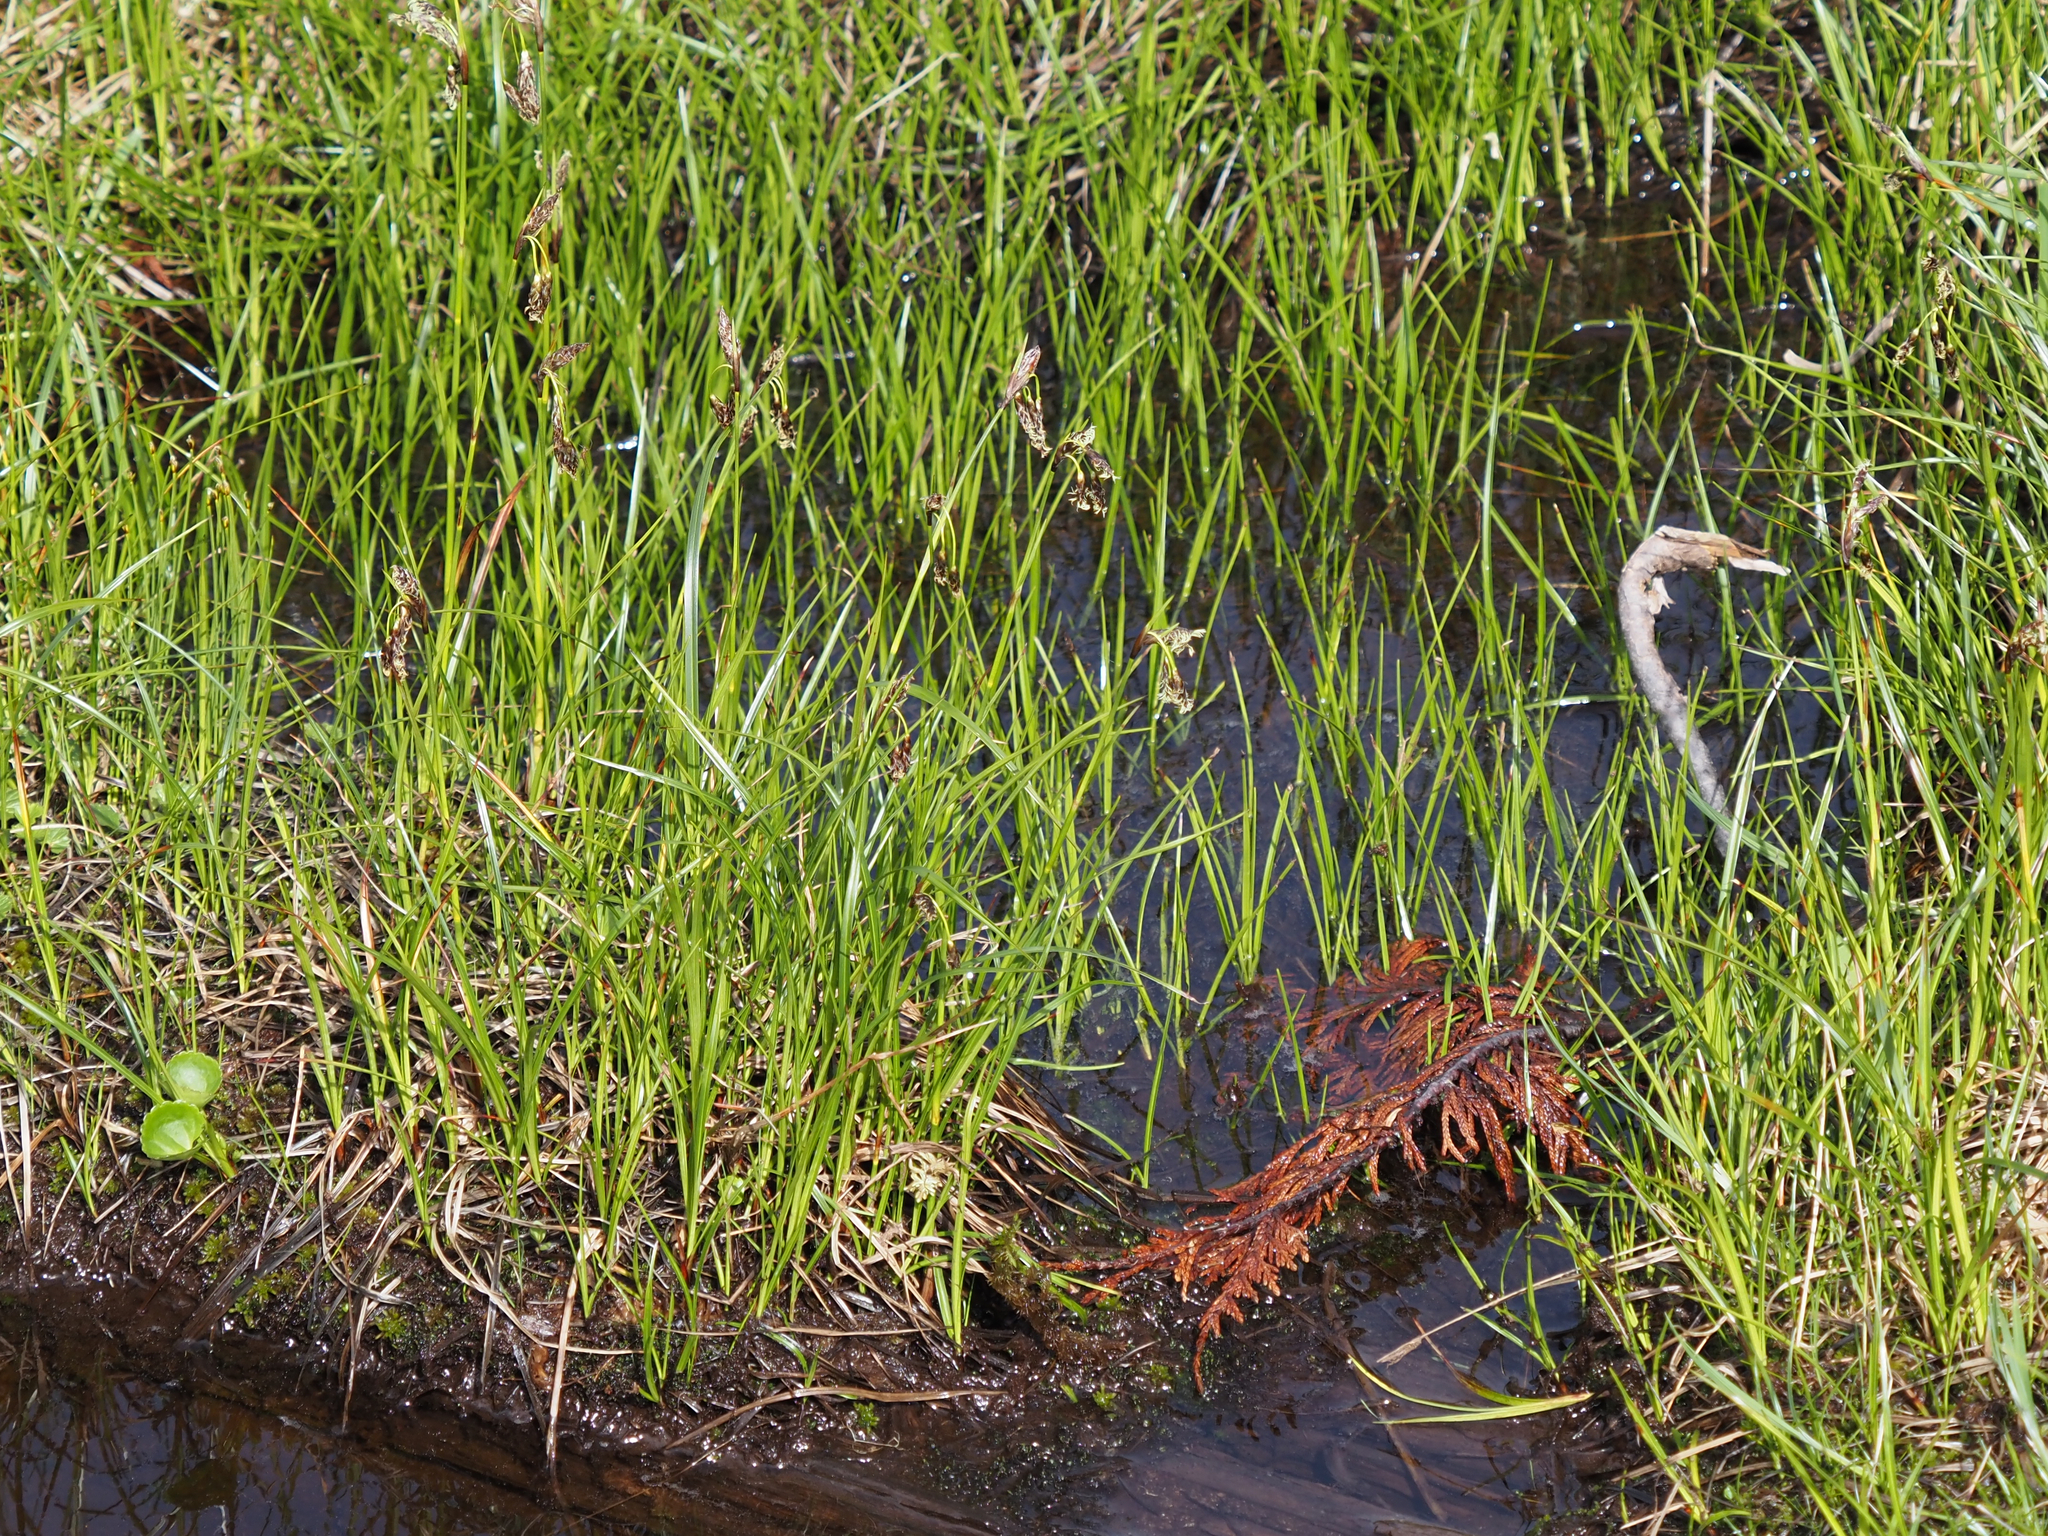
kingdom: Plantae
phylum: Tracheophyta
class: Liliopsida
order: Poales
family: Cyperaceae
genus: Eriophorum
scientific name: Eriophorum angustifolium
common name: Common cottongrass
